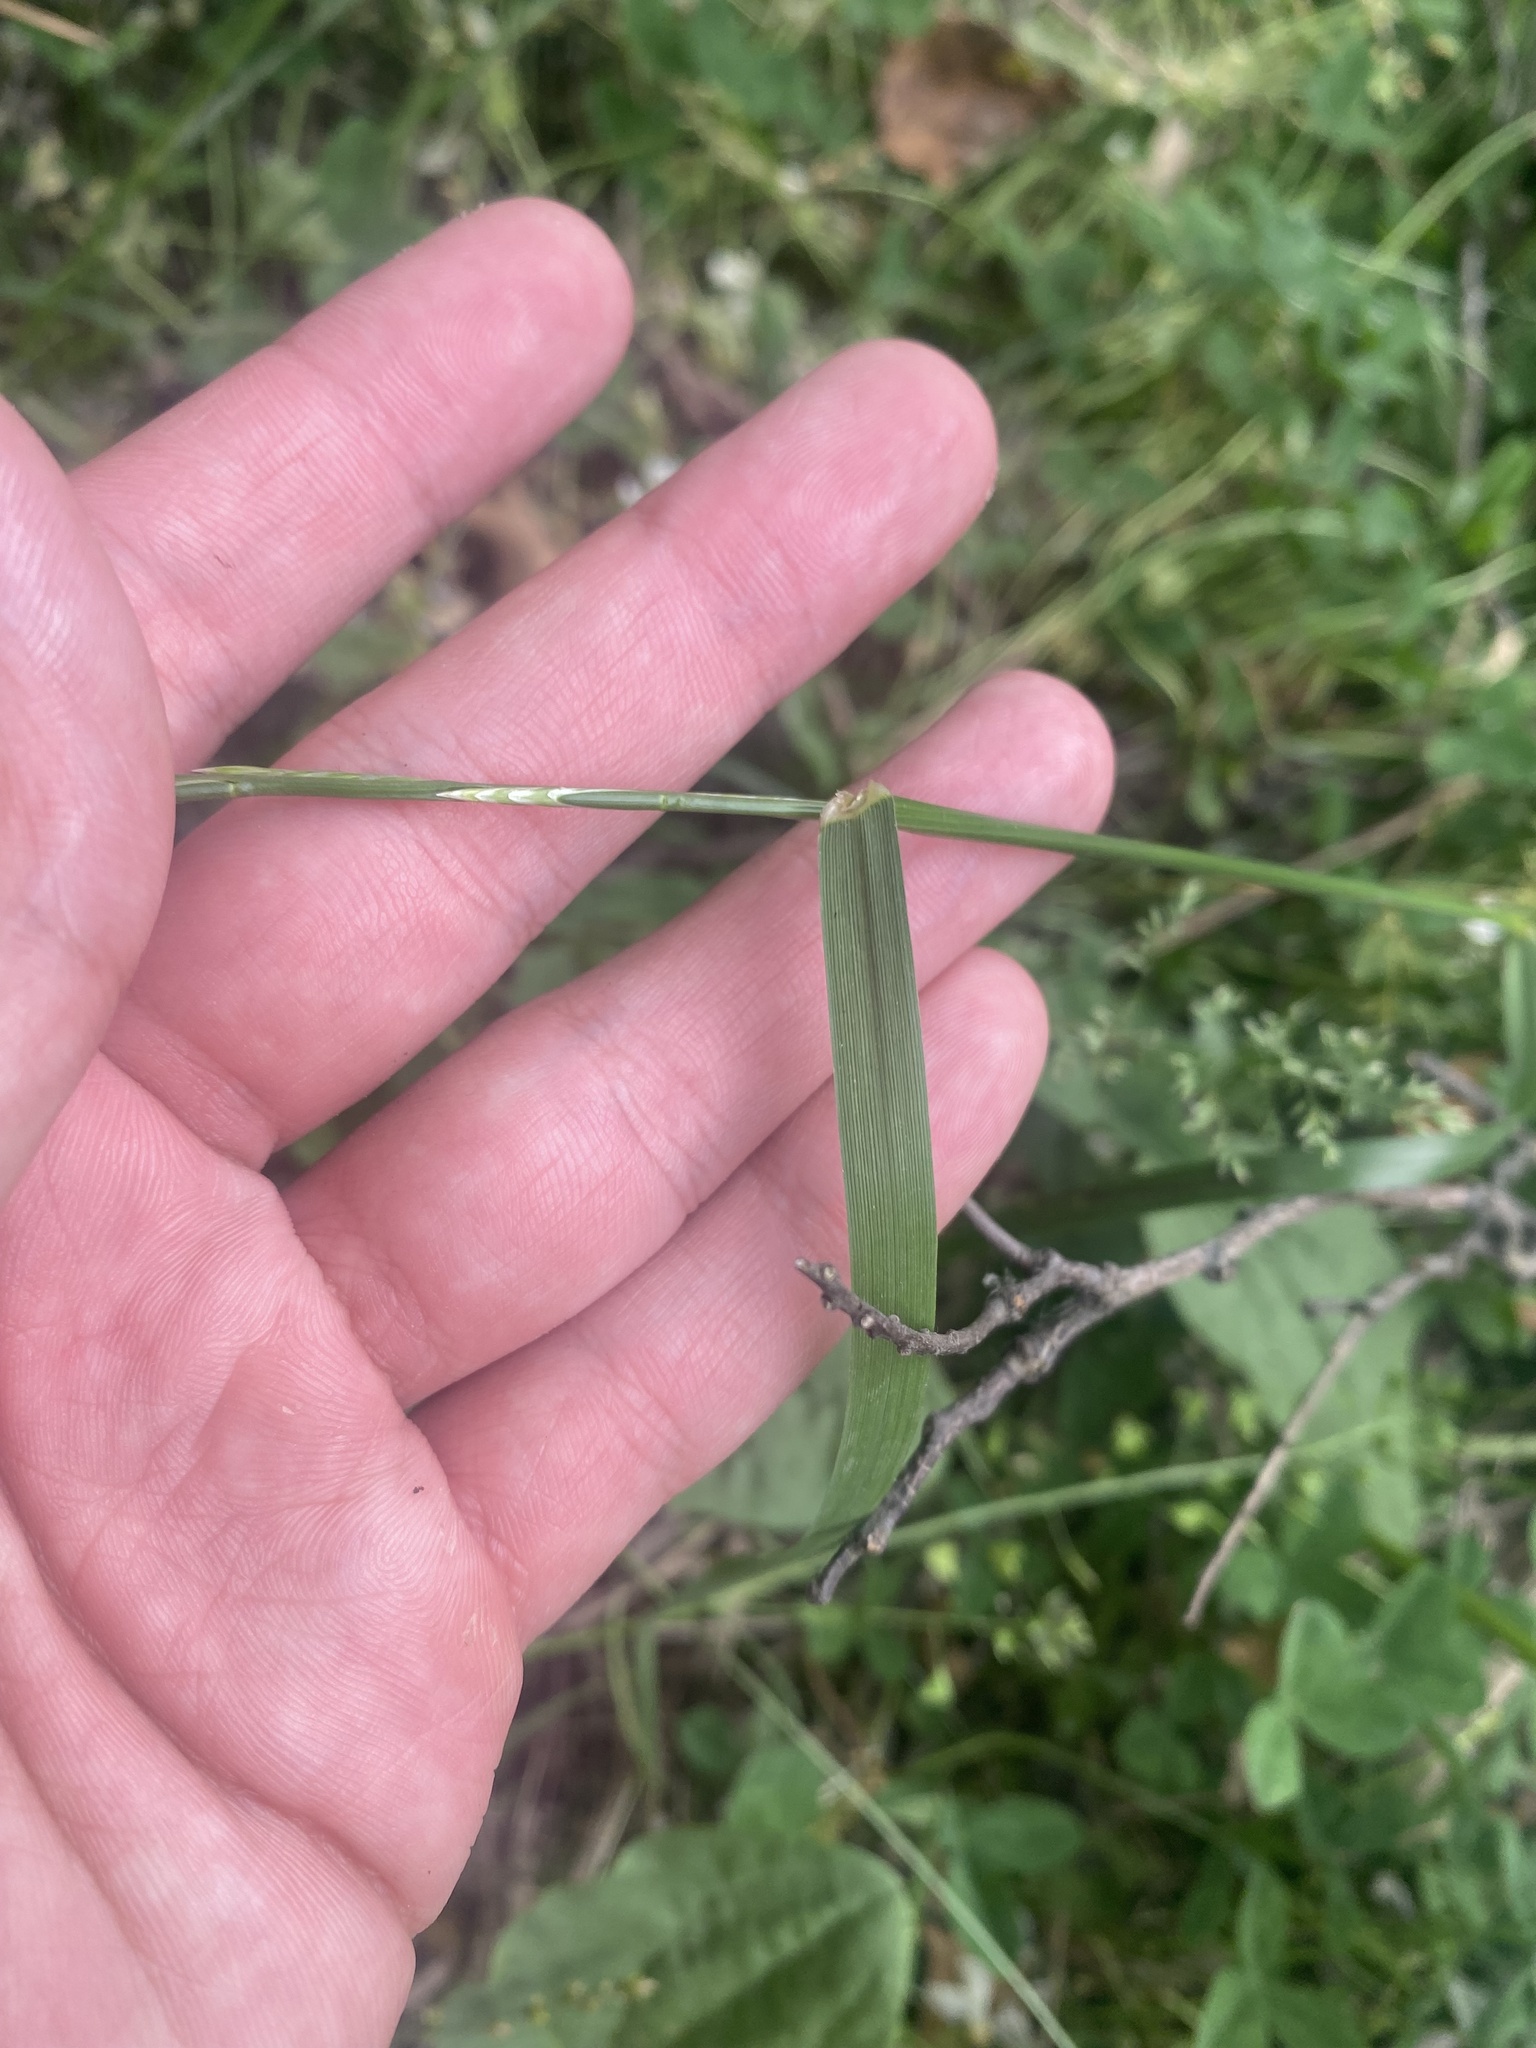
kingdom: Plantae
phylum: Tracheophyta
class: Liliopsida
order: Poales
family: Poaceae
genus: Lolium
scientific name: Lolium perenne
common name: Perennial ryegrass
